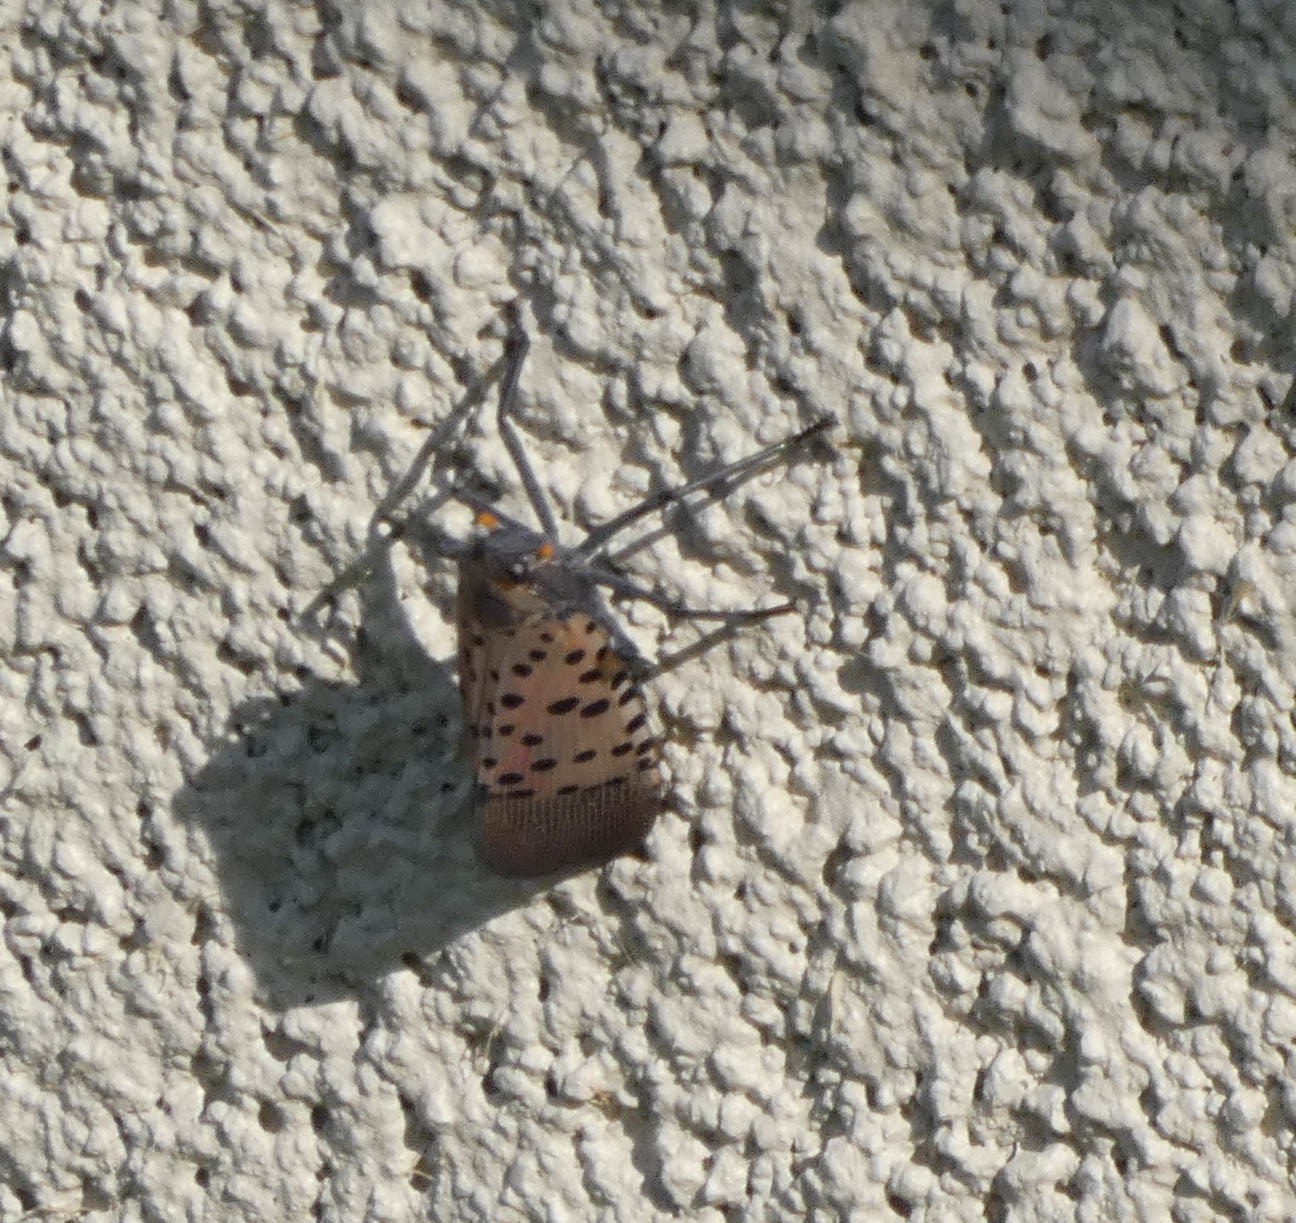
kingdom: Animalia
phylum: Arthropoda
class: Insecta
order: Hemiptera
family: Fulgoridae
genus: Lycorma
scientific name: Lycorma delicatula
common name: Spotted lanternfly
